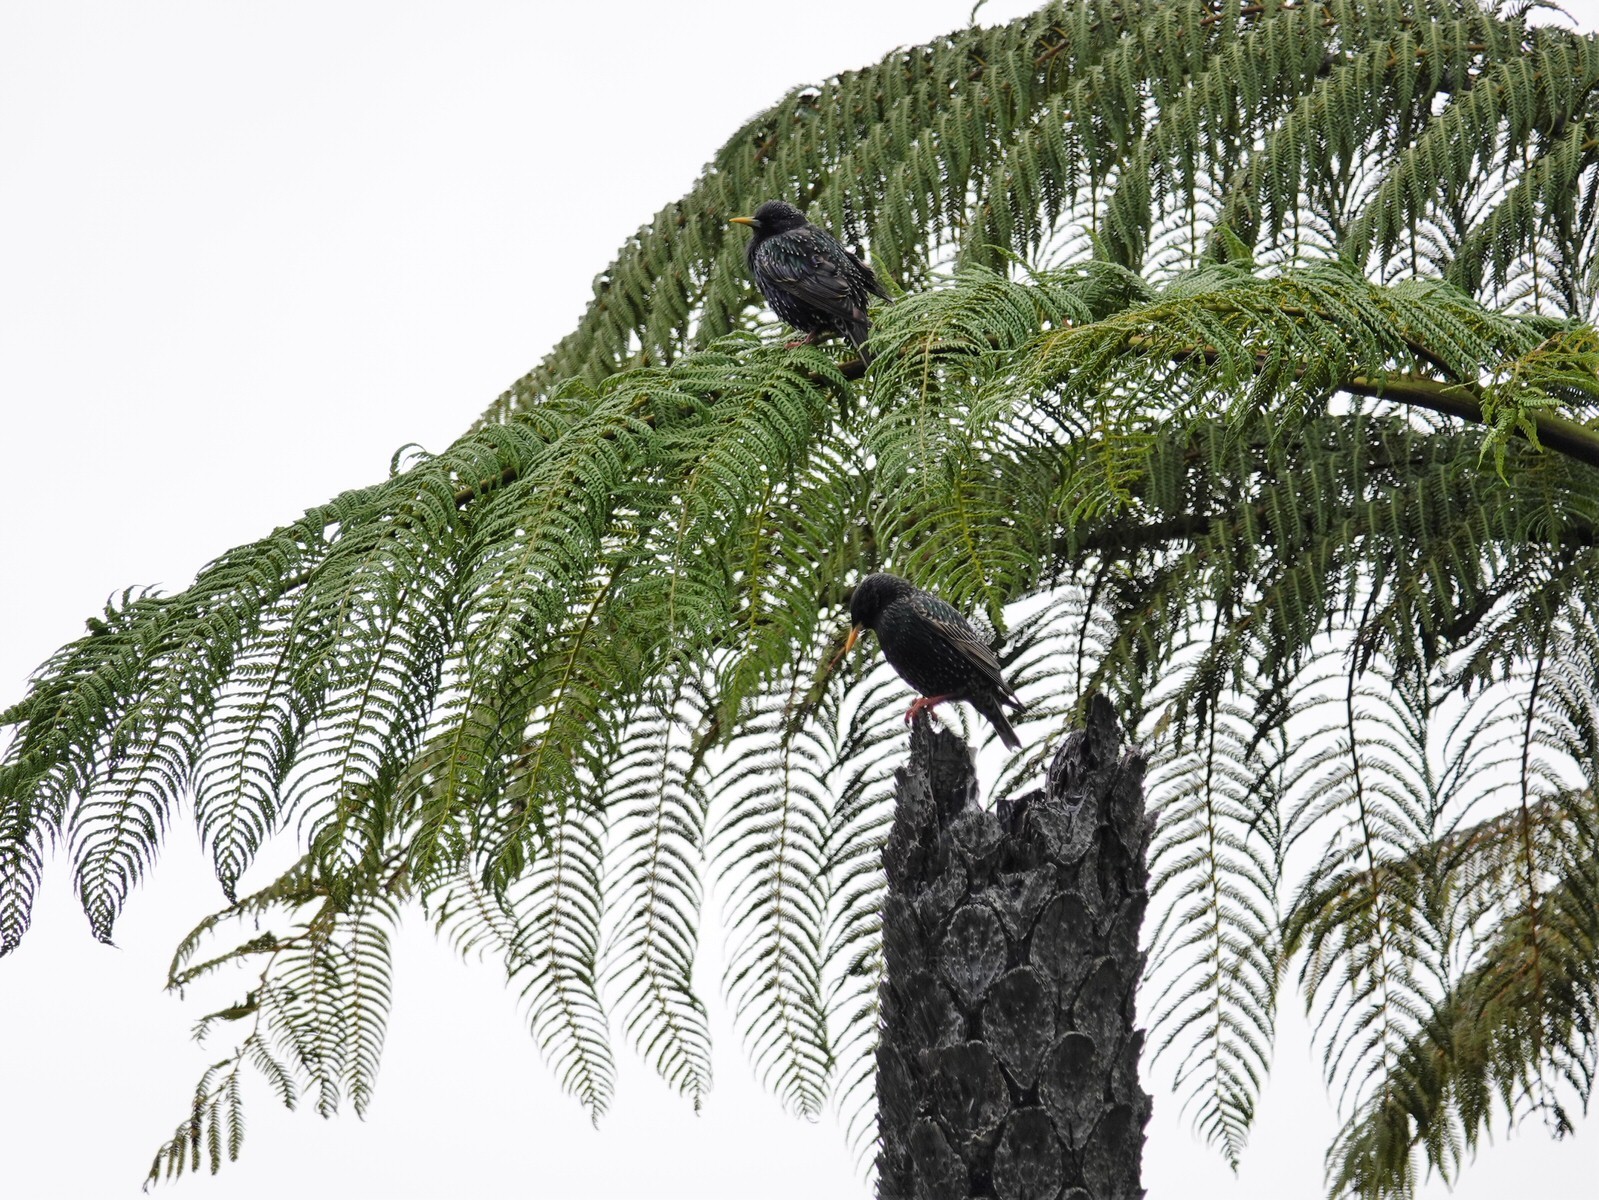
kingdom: Animalia
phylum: Chordata
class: Aves
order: Passeriformes
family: Sturnidae
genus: Sturnus
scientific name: Sturnus vulgaris
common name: Common starling
